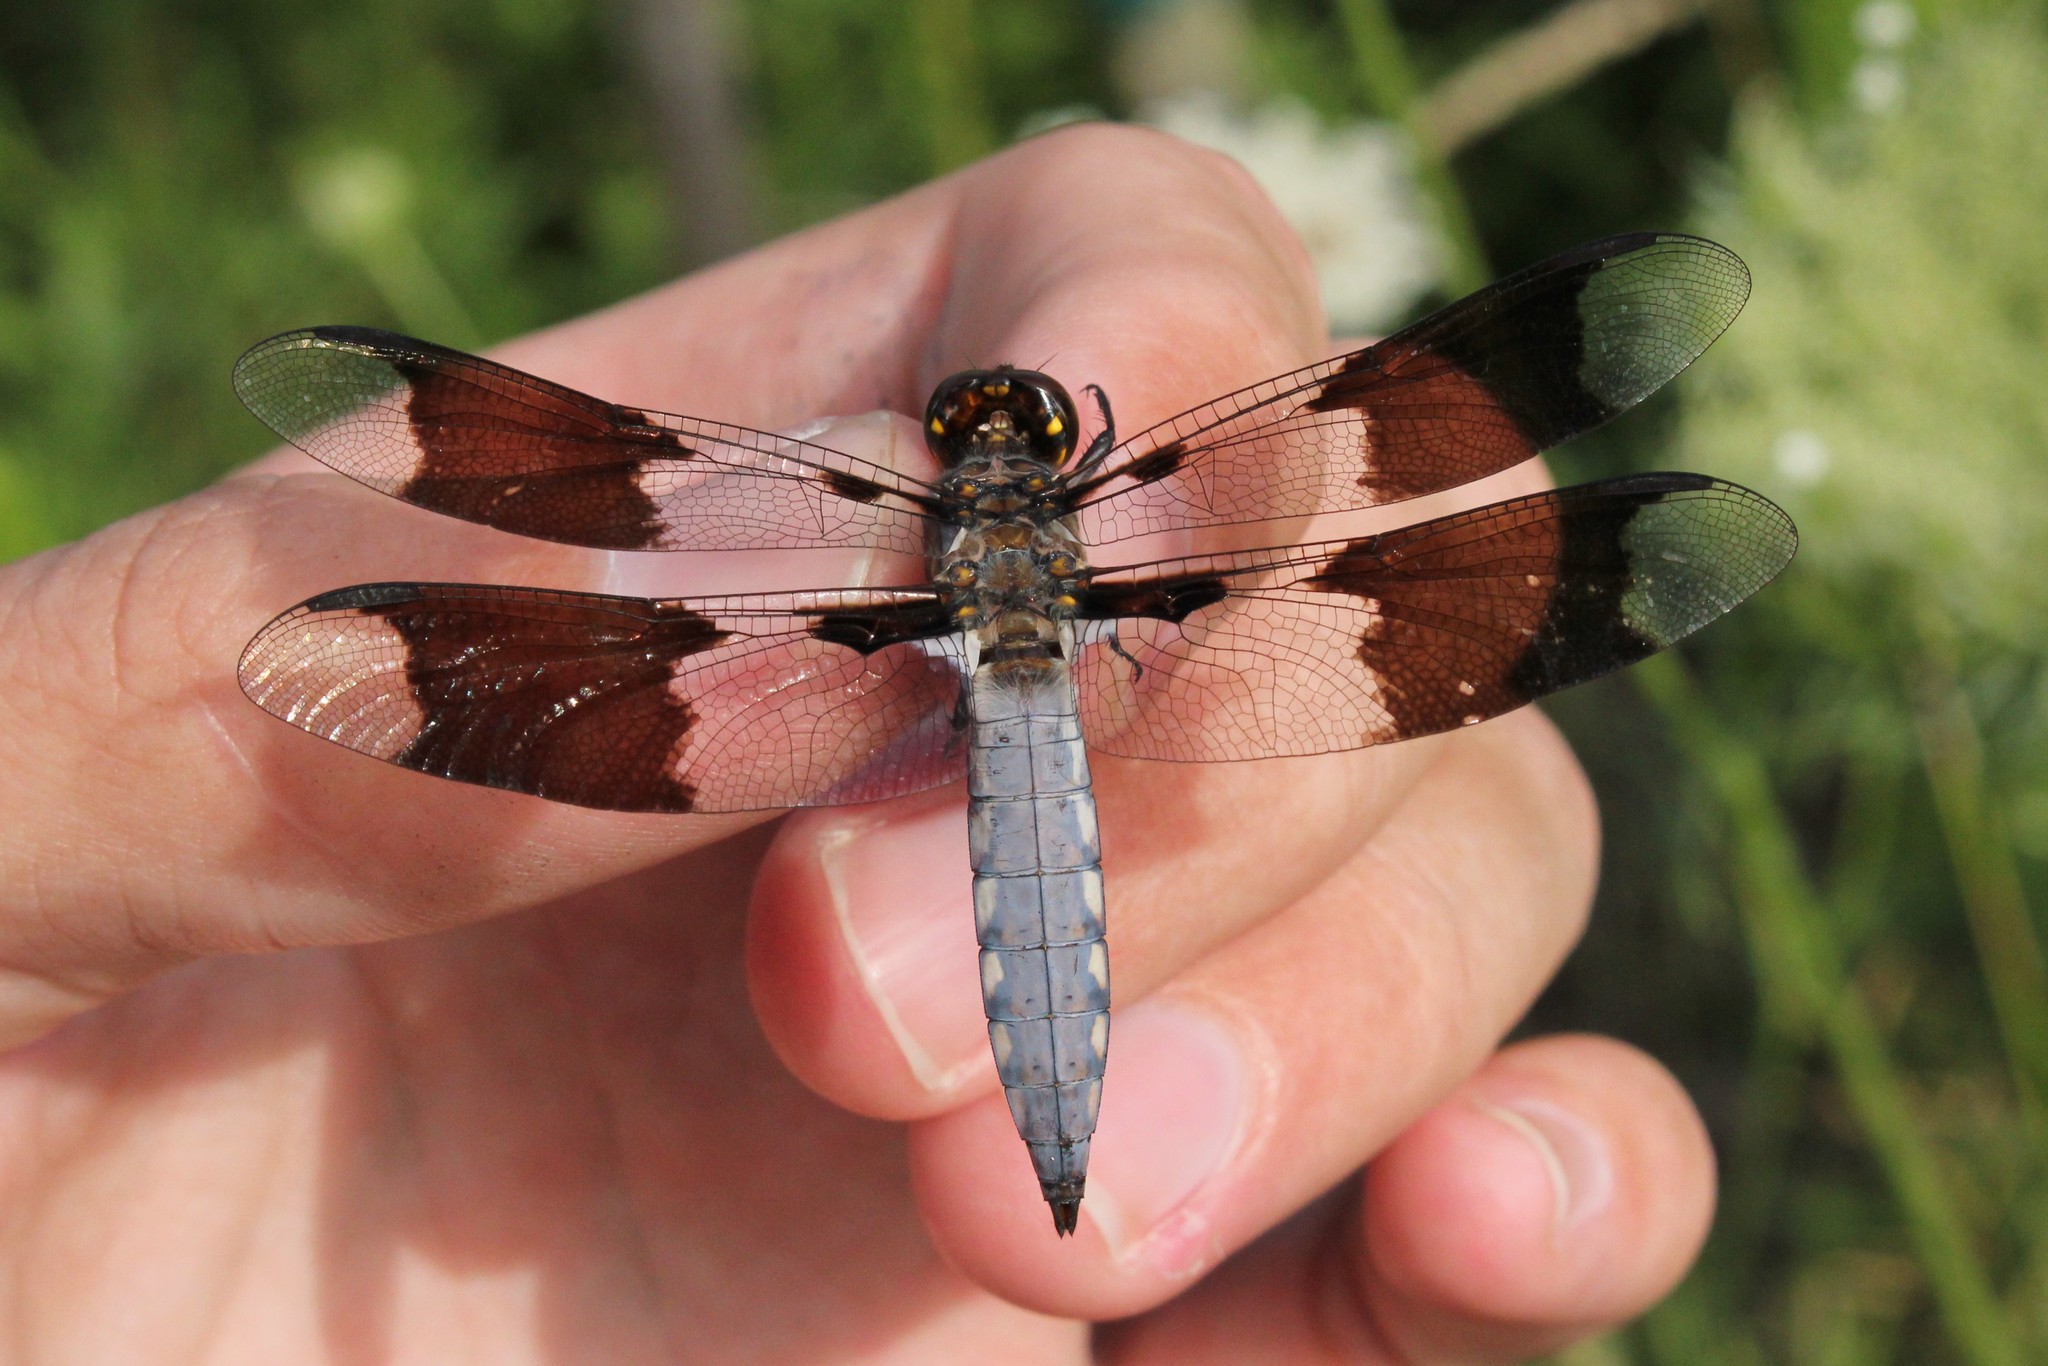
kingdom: Animalia
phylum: Arthropoda
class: Insecta
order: Odonata
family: Libellulidae
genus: Plathemis
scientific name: Plathemis lydia
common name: Common whitetail
